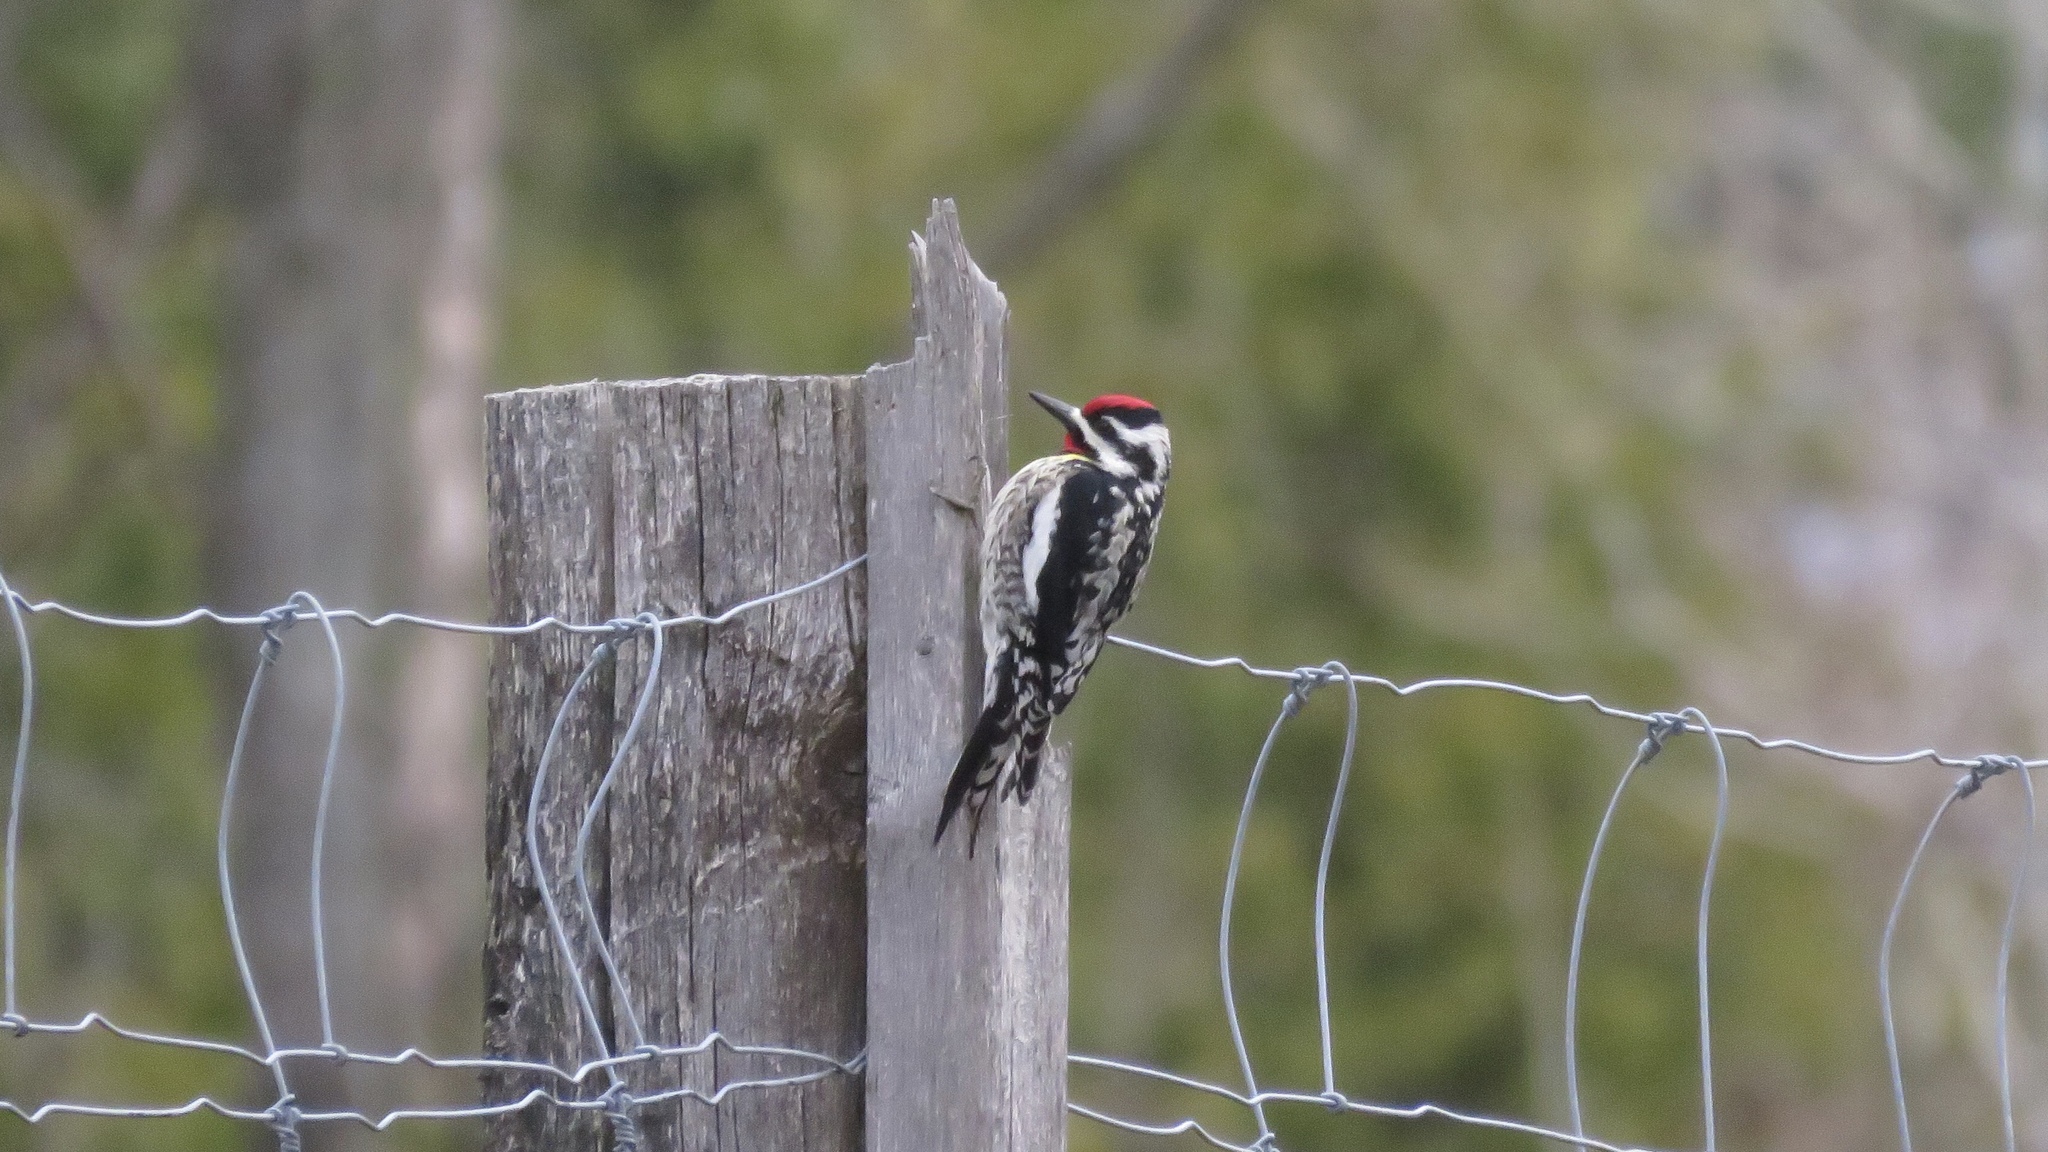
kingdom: Animalia
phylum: Chordata
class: Aves
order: Piciformes
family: Picidae
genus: Sphyrapicus
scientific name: Sphyrapicus varius
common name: Yellow-bellied sapsucker
